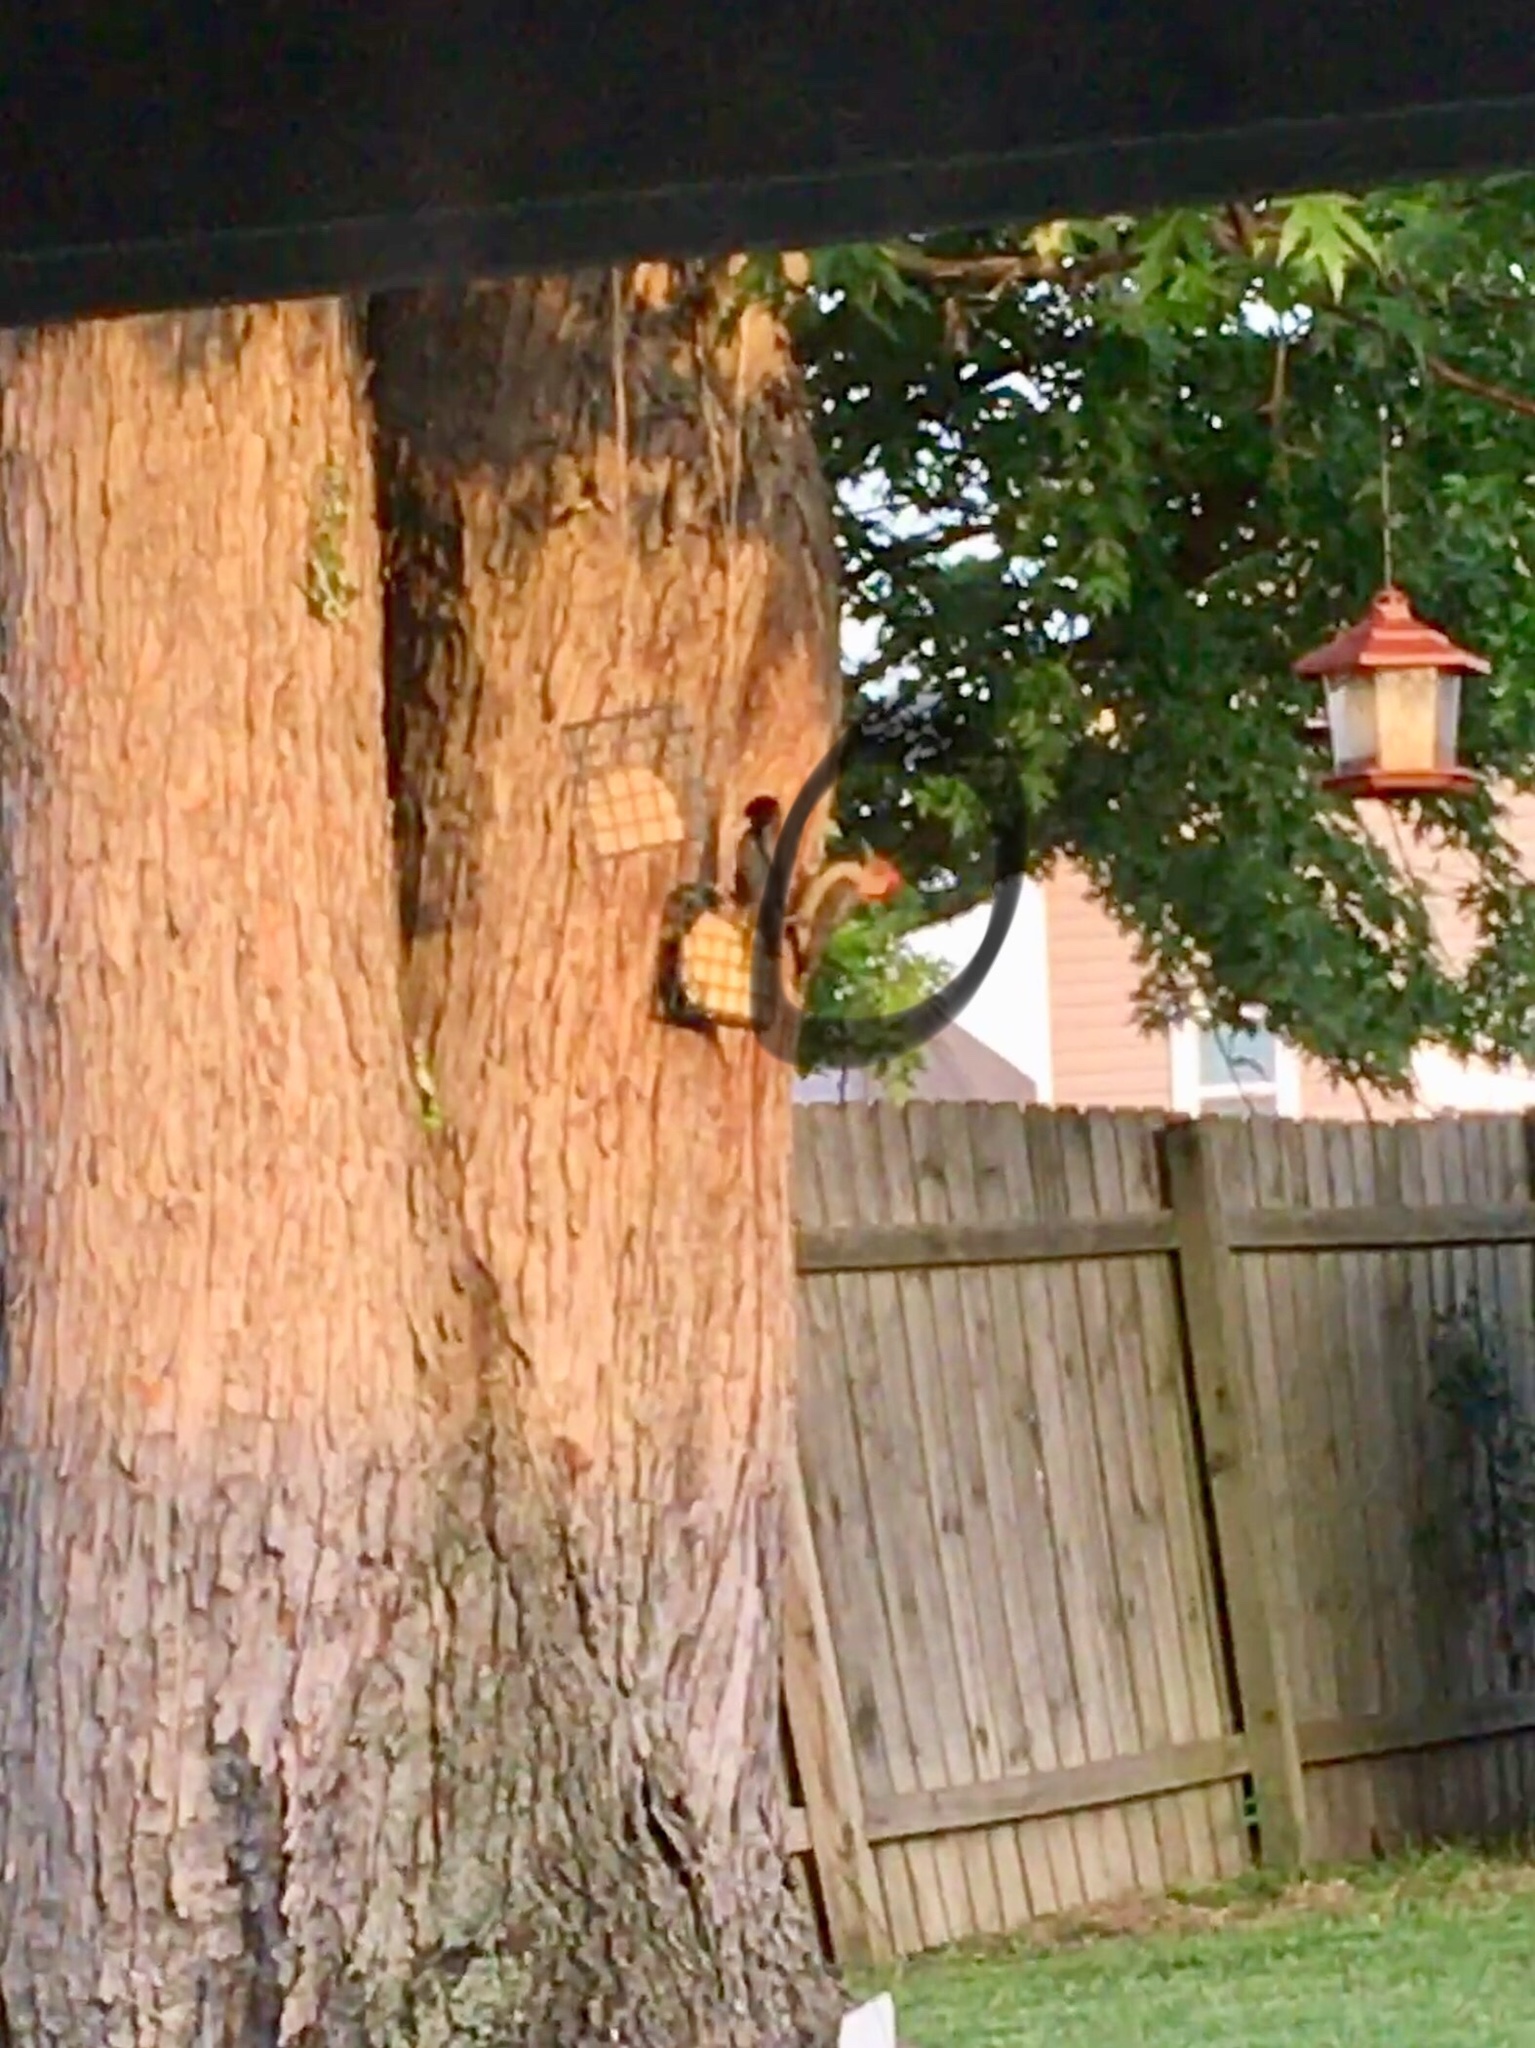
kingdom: Animalia
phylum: Chordata
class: Aves
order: Piciformes
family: Picidae
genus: Melanerpes
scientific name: Melanerpes carolinus
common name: Red-bellied woodpecker
